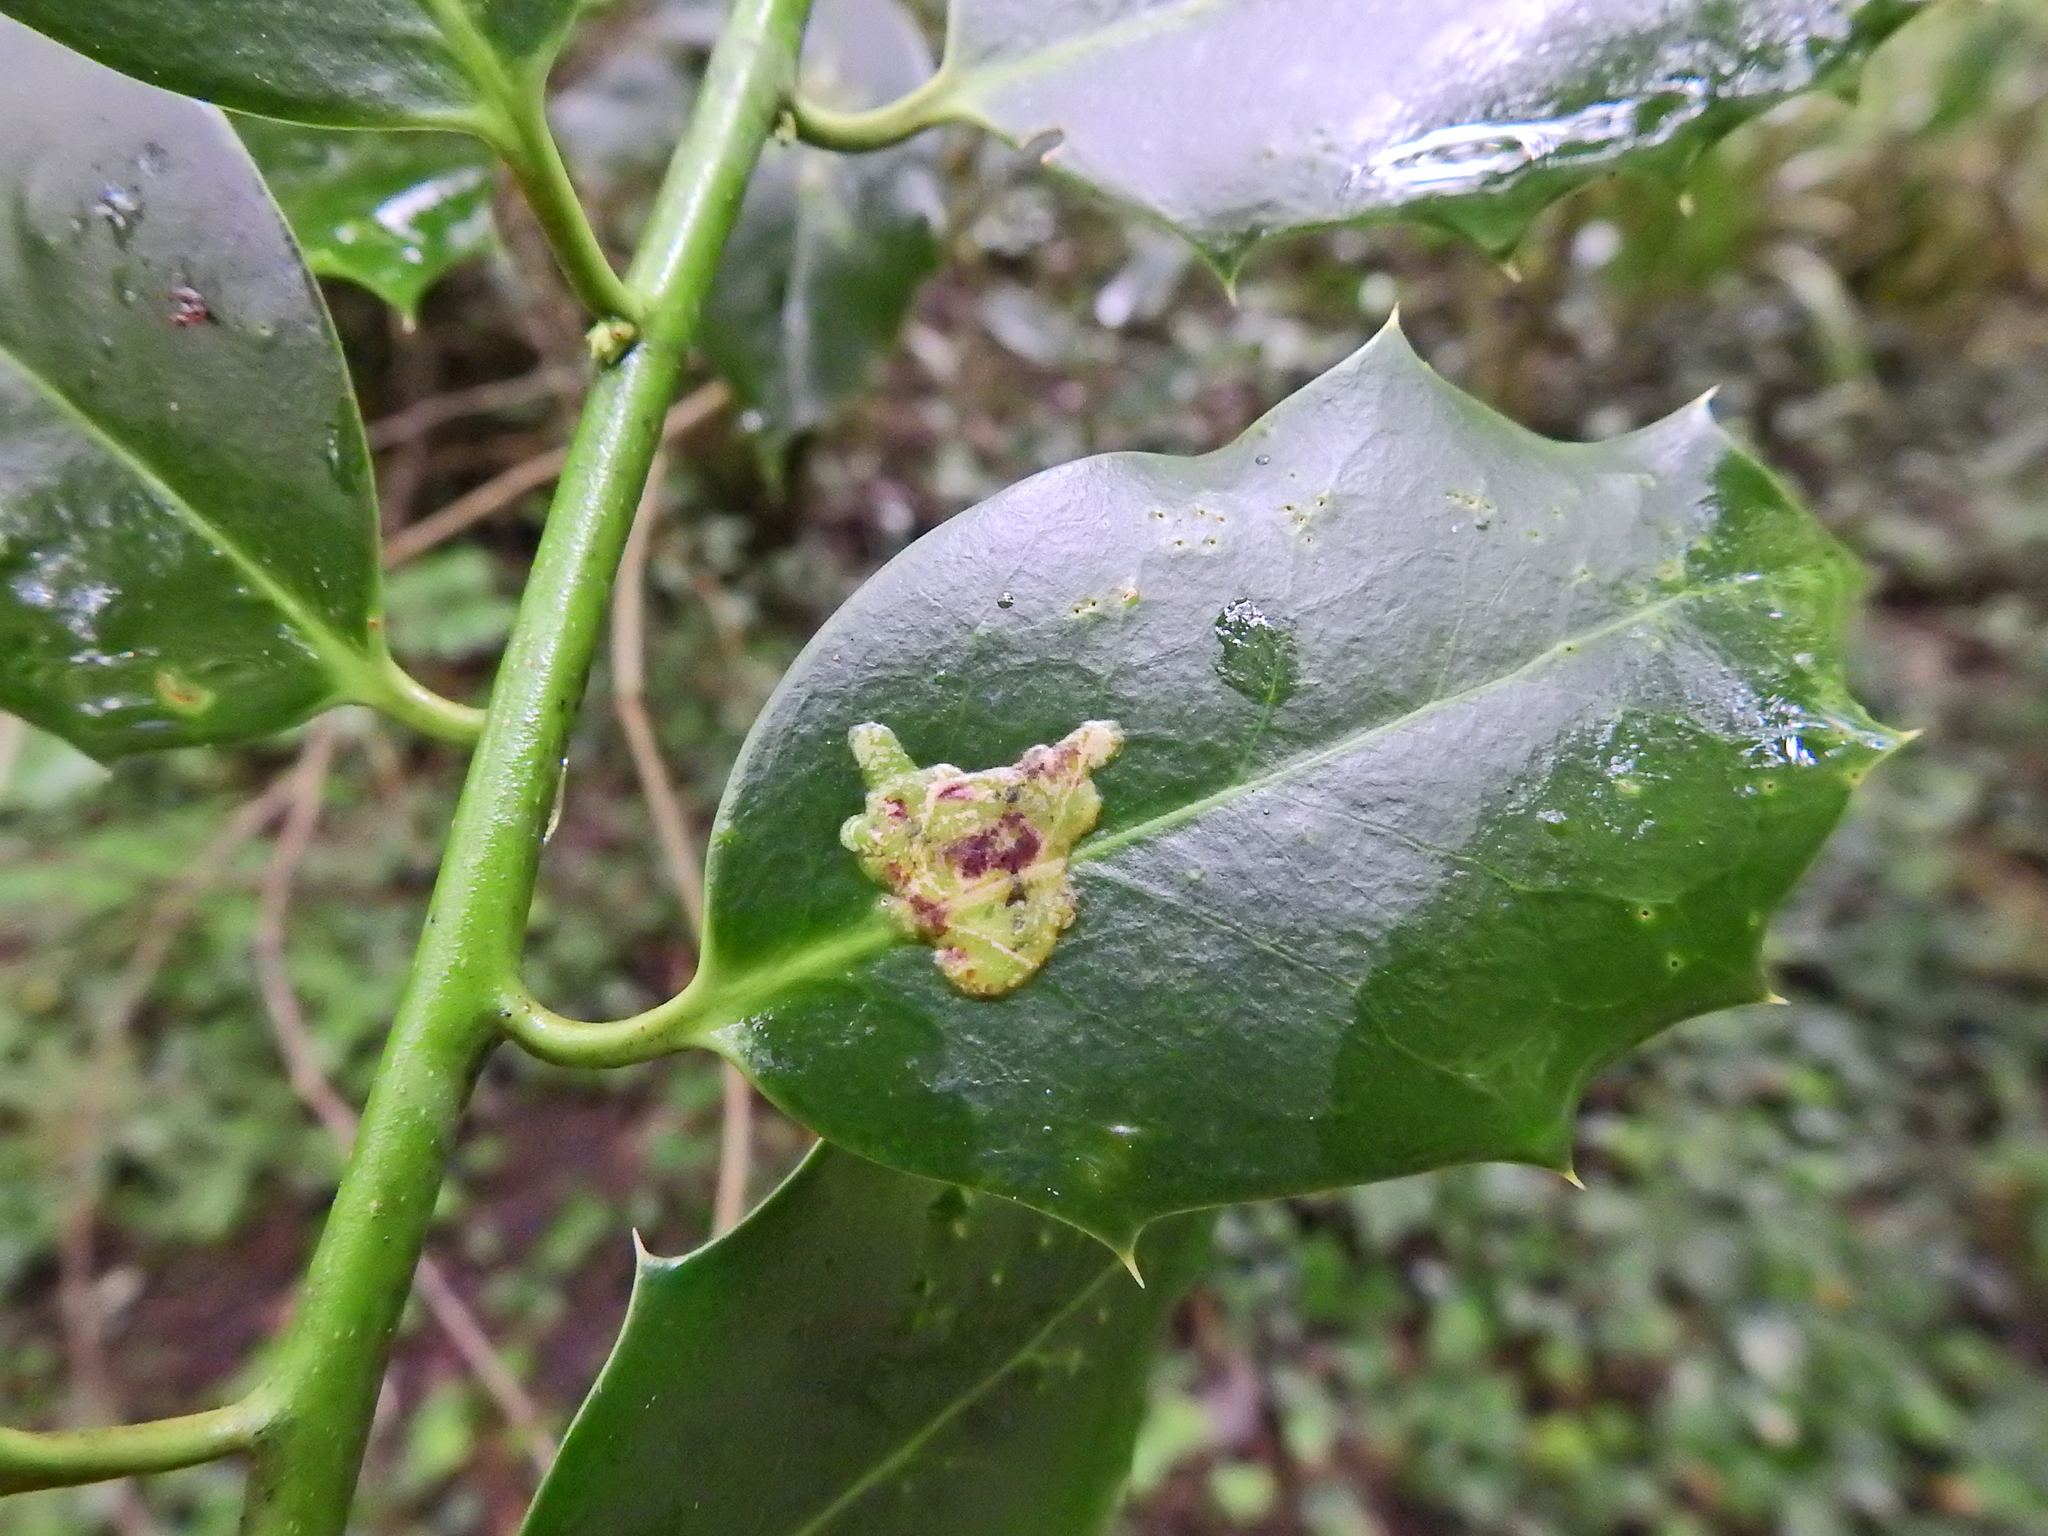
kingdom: Animalia
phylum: Arthropoda
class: Insecta
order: Diptera
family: Agromyzidae
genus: Phytomyza
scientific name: Phytomyza ilicis
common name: Holly leafminer
